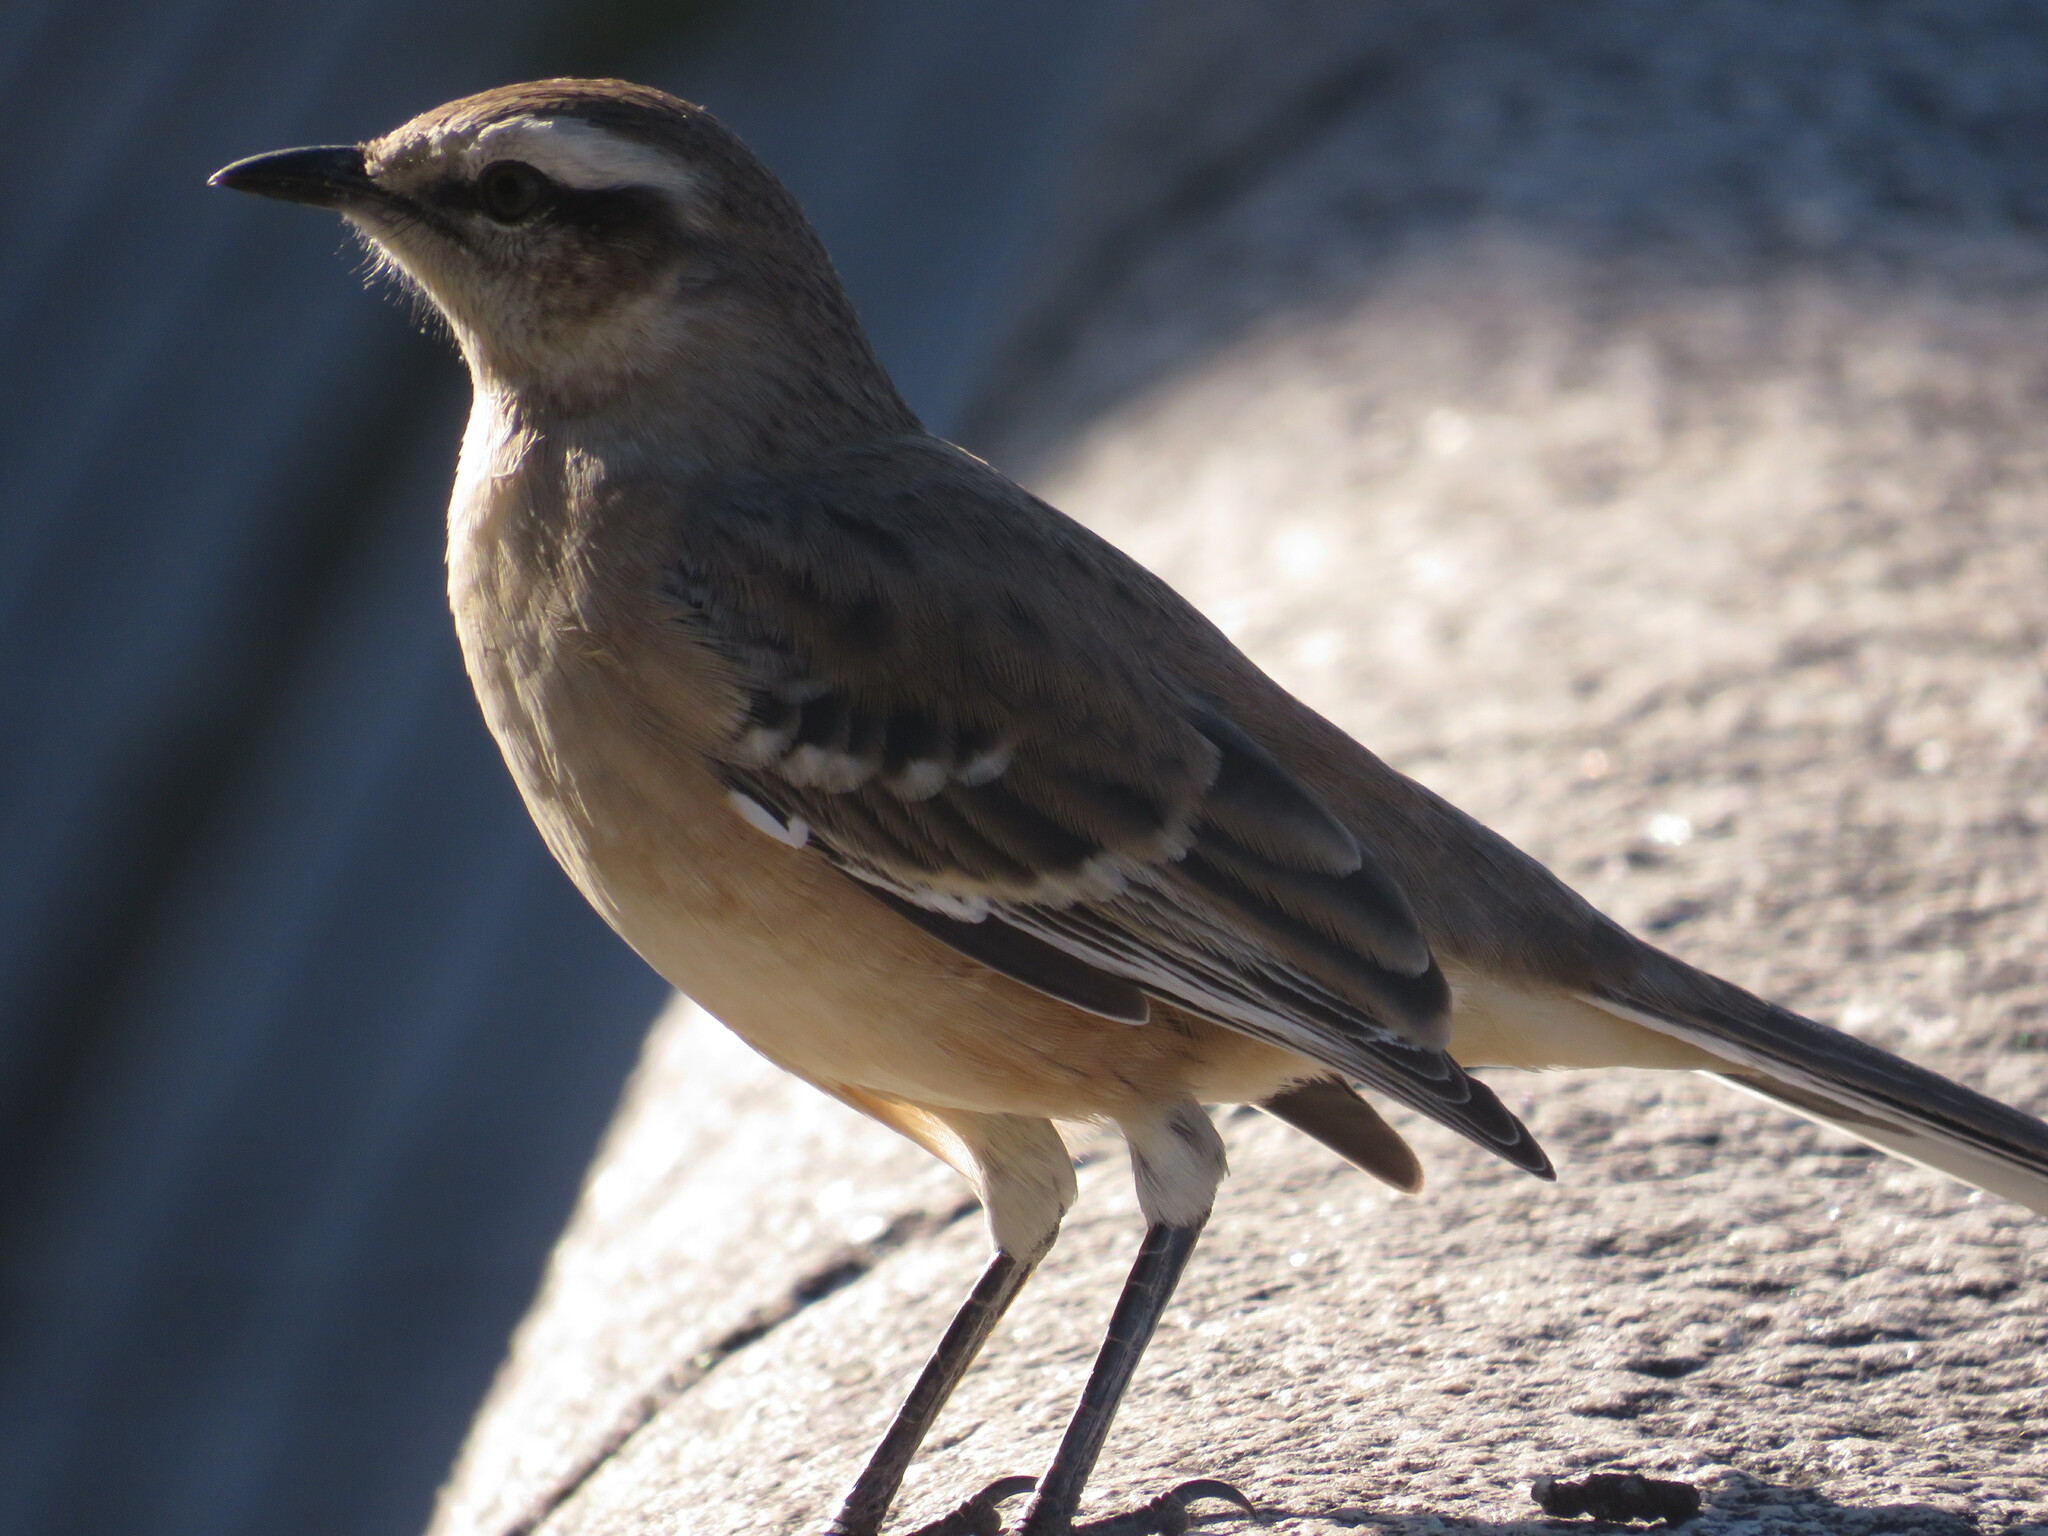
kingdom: Animalia
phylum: Chordata
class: Aves
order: Passeriformes
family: Mimidae
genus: Mimus
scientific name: Mimus saturninus
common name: Chalk-browed mockingbird
